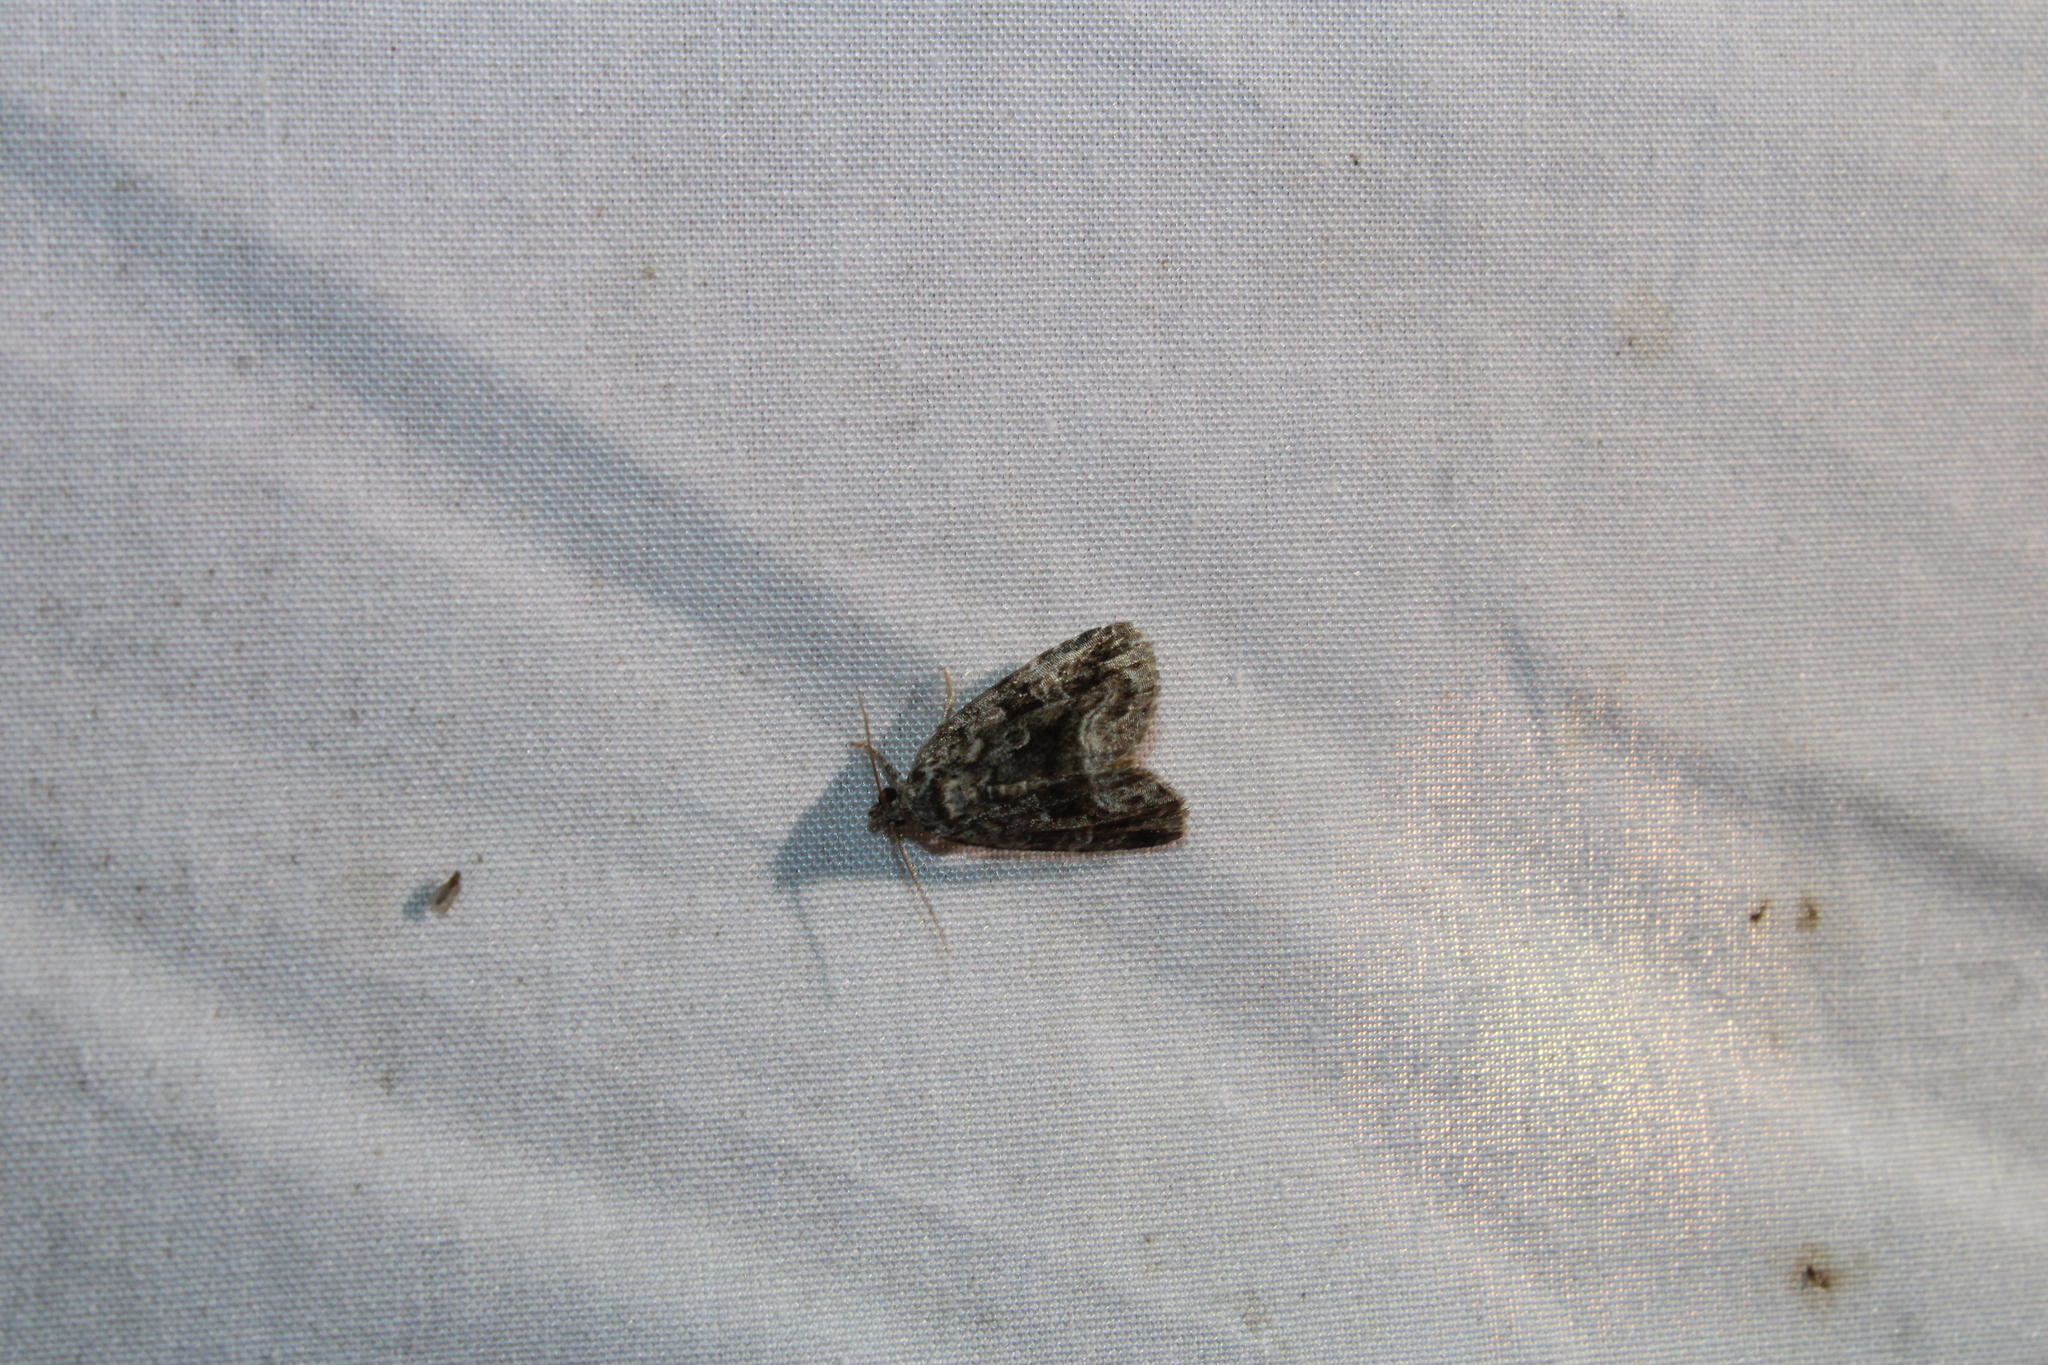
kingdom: Animalia
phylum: Arthropoda
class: Insecta
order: Lepidoptera
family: Noctuidae
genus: Protodeltote
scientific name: Protodeltote muscosula
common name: Large mossy glyph
